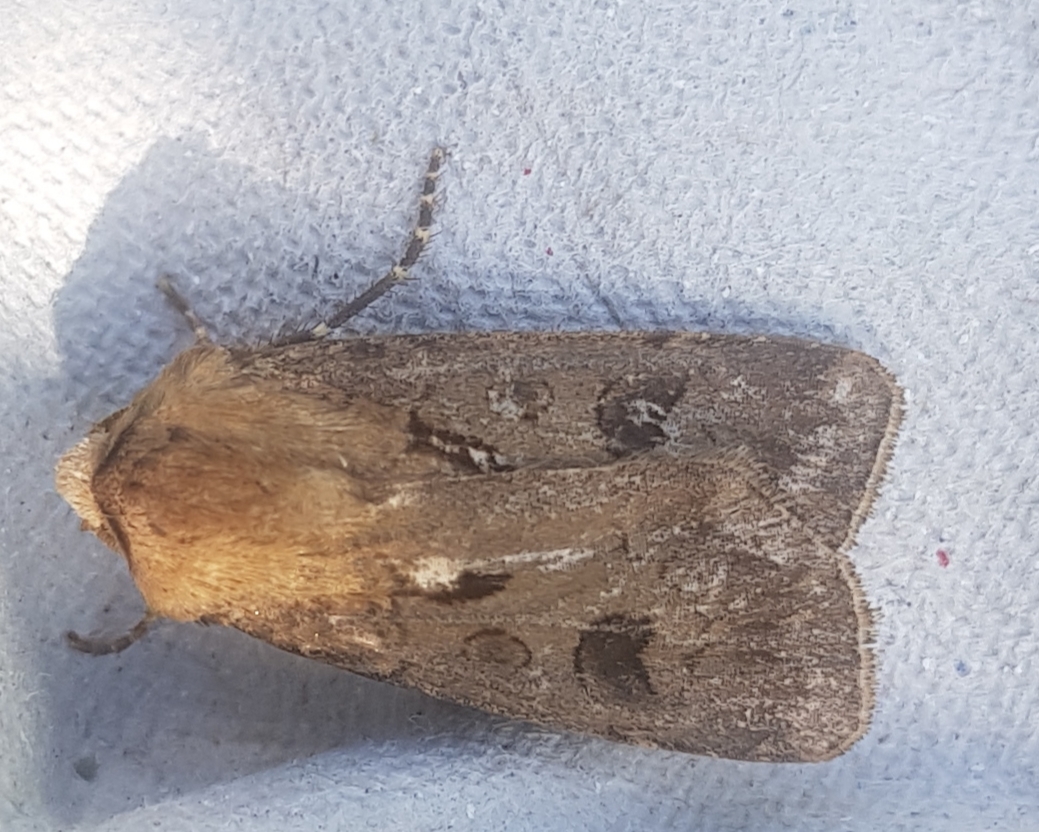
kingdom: Animalia
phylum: Arthropoda
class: Insecta
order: Lepidoptera
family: Noctuidae
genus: Agrotis
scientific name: Agrotis exclamationis
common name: Heart and dart
